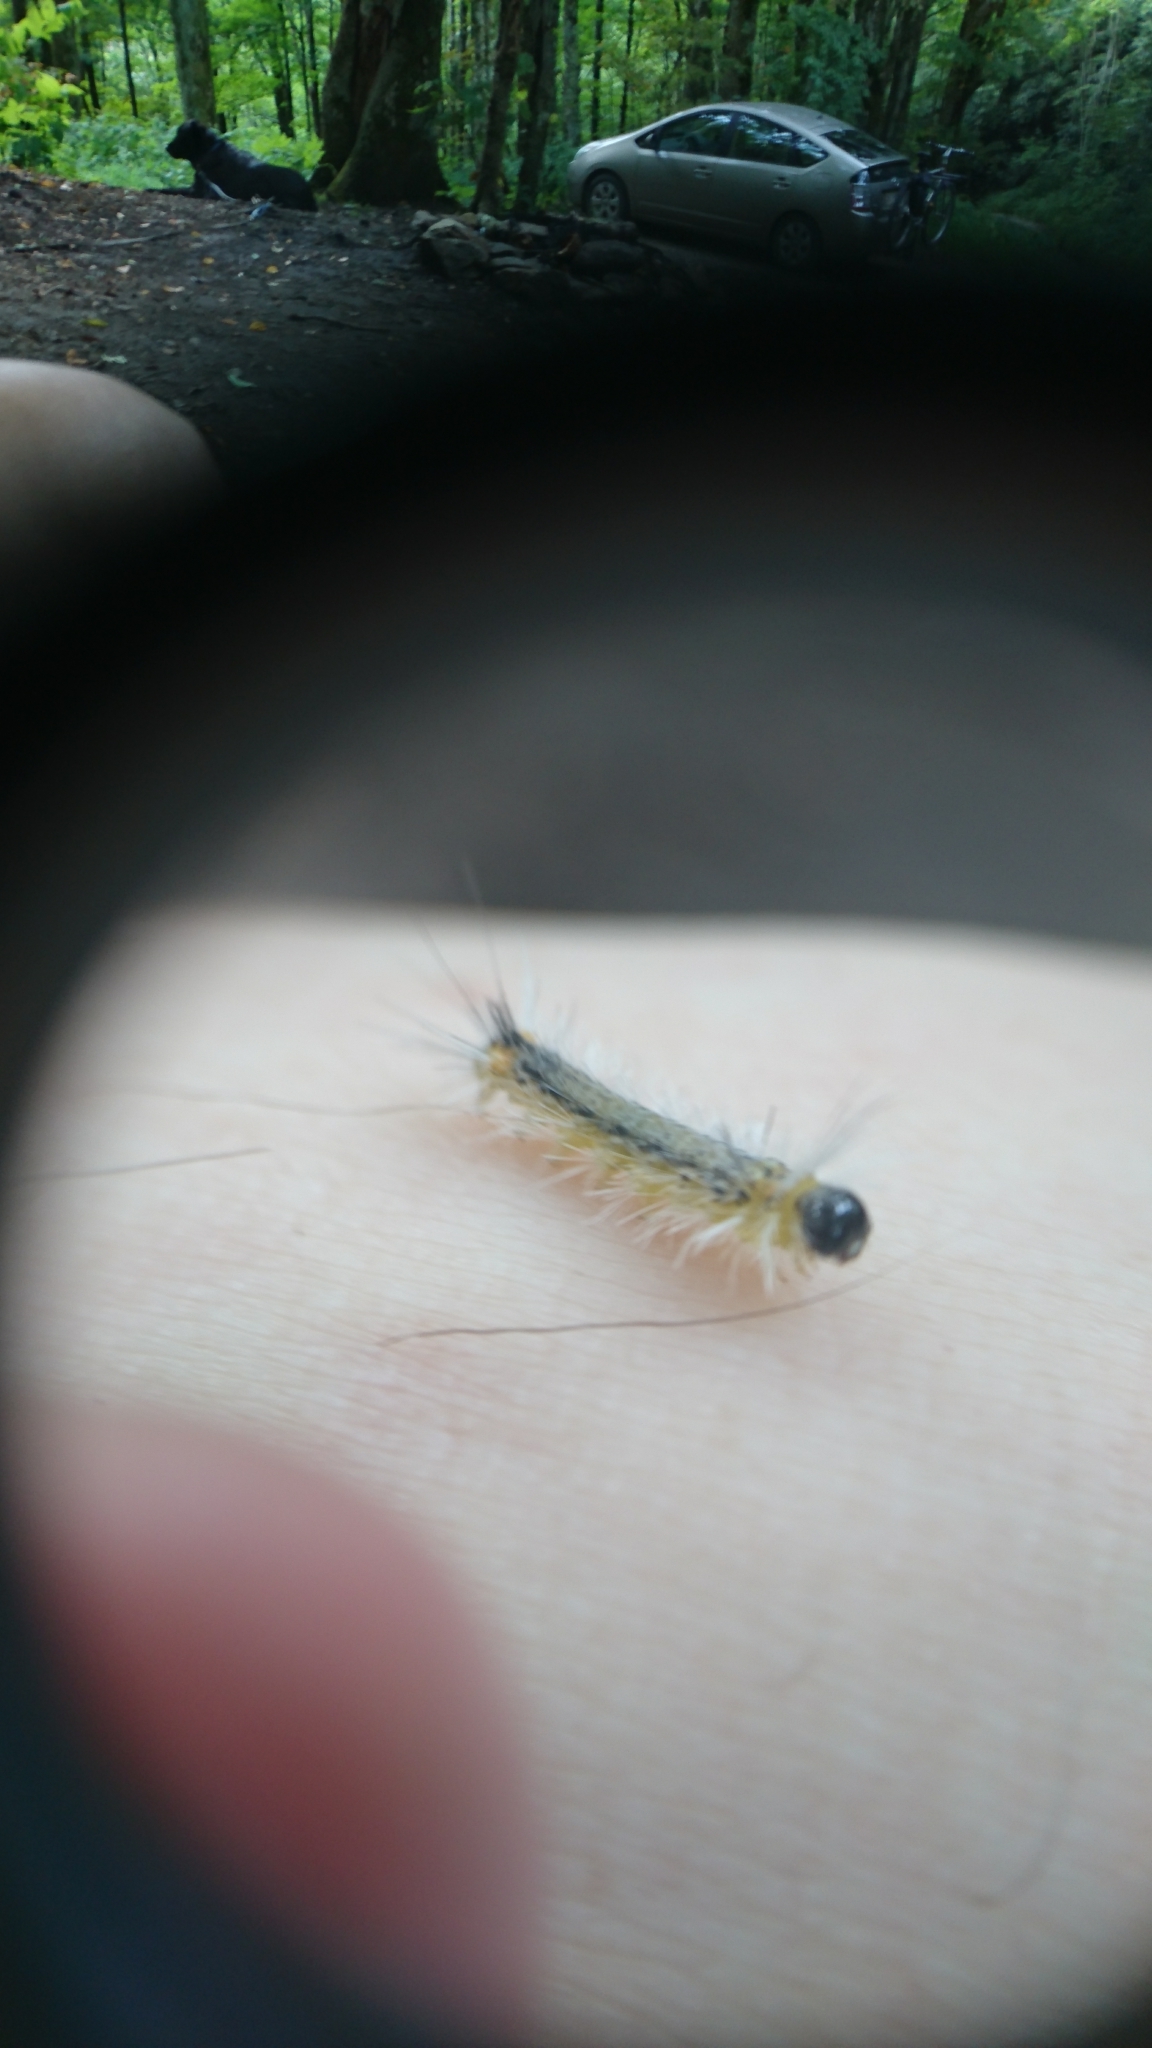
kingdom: Animalia
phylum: Arthropoda
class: Insecta
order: Lepidoptera
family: Erebidae
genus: Halysidota
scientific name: Halysidota tessellaris
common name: Banded tussock moth
